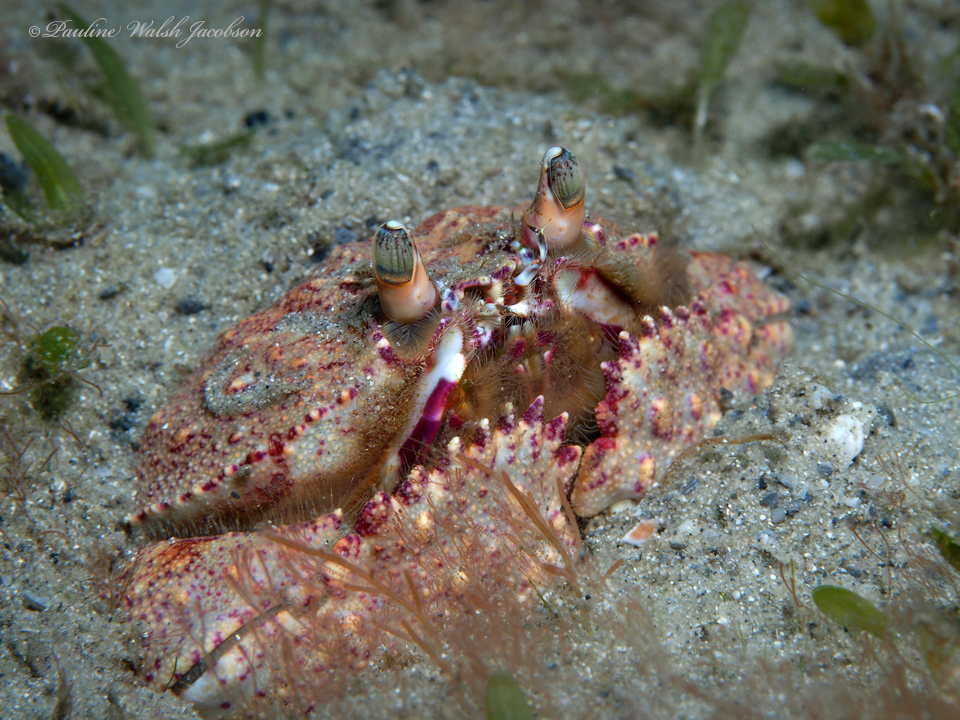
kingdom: Animalia
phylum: Arthropoda
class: Malacostraca
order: Decapoda
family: Calappidae
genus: Cryptosoma
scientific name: Cryptosoma bairdii
